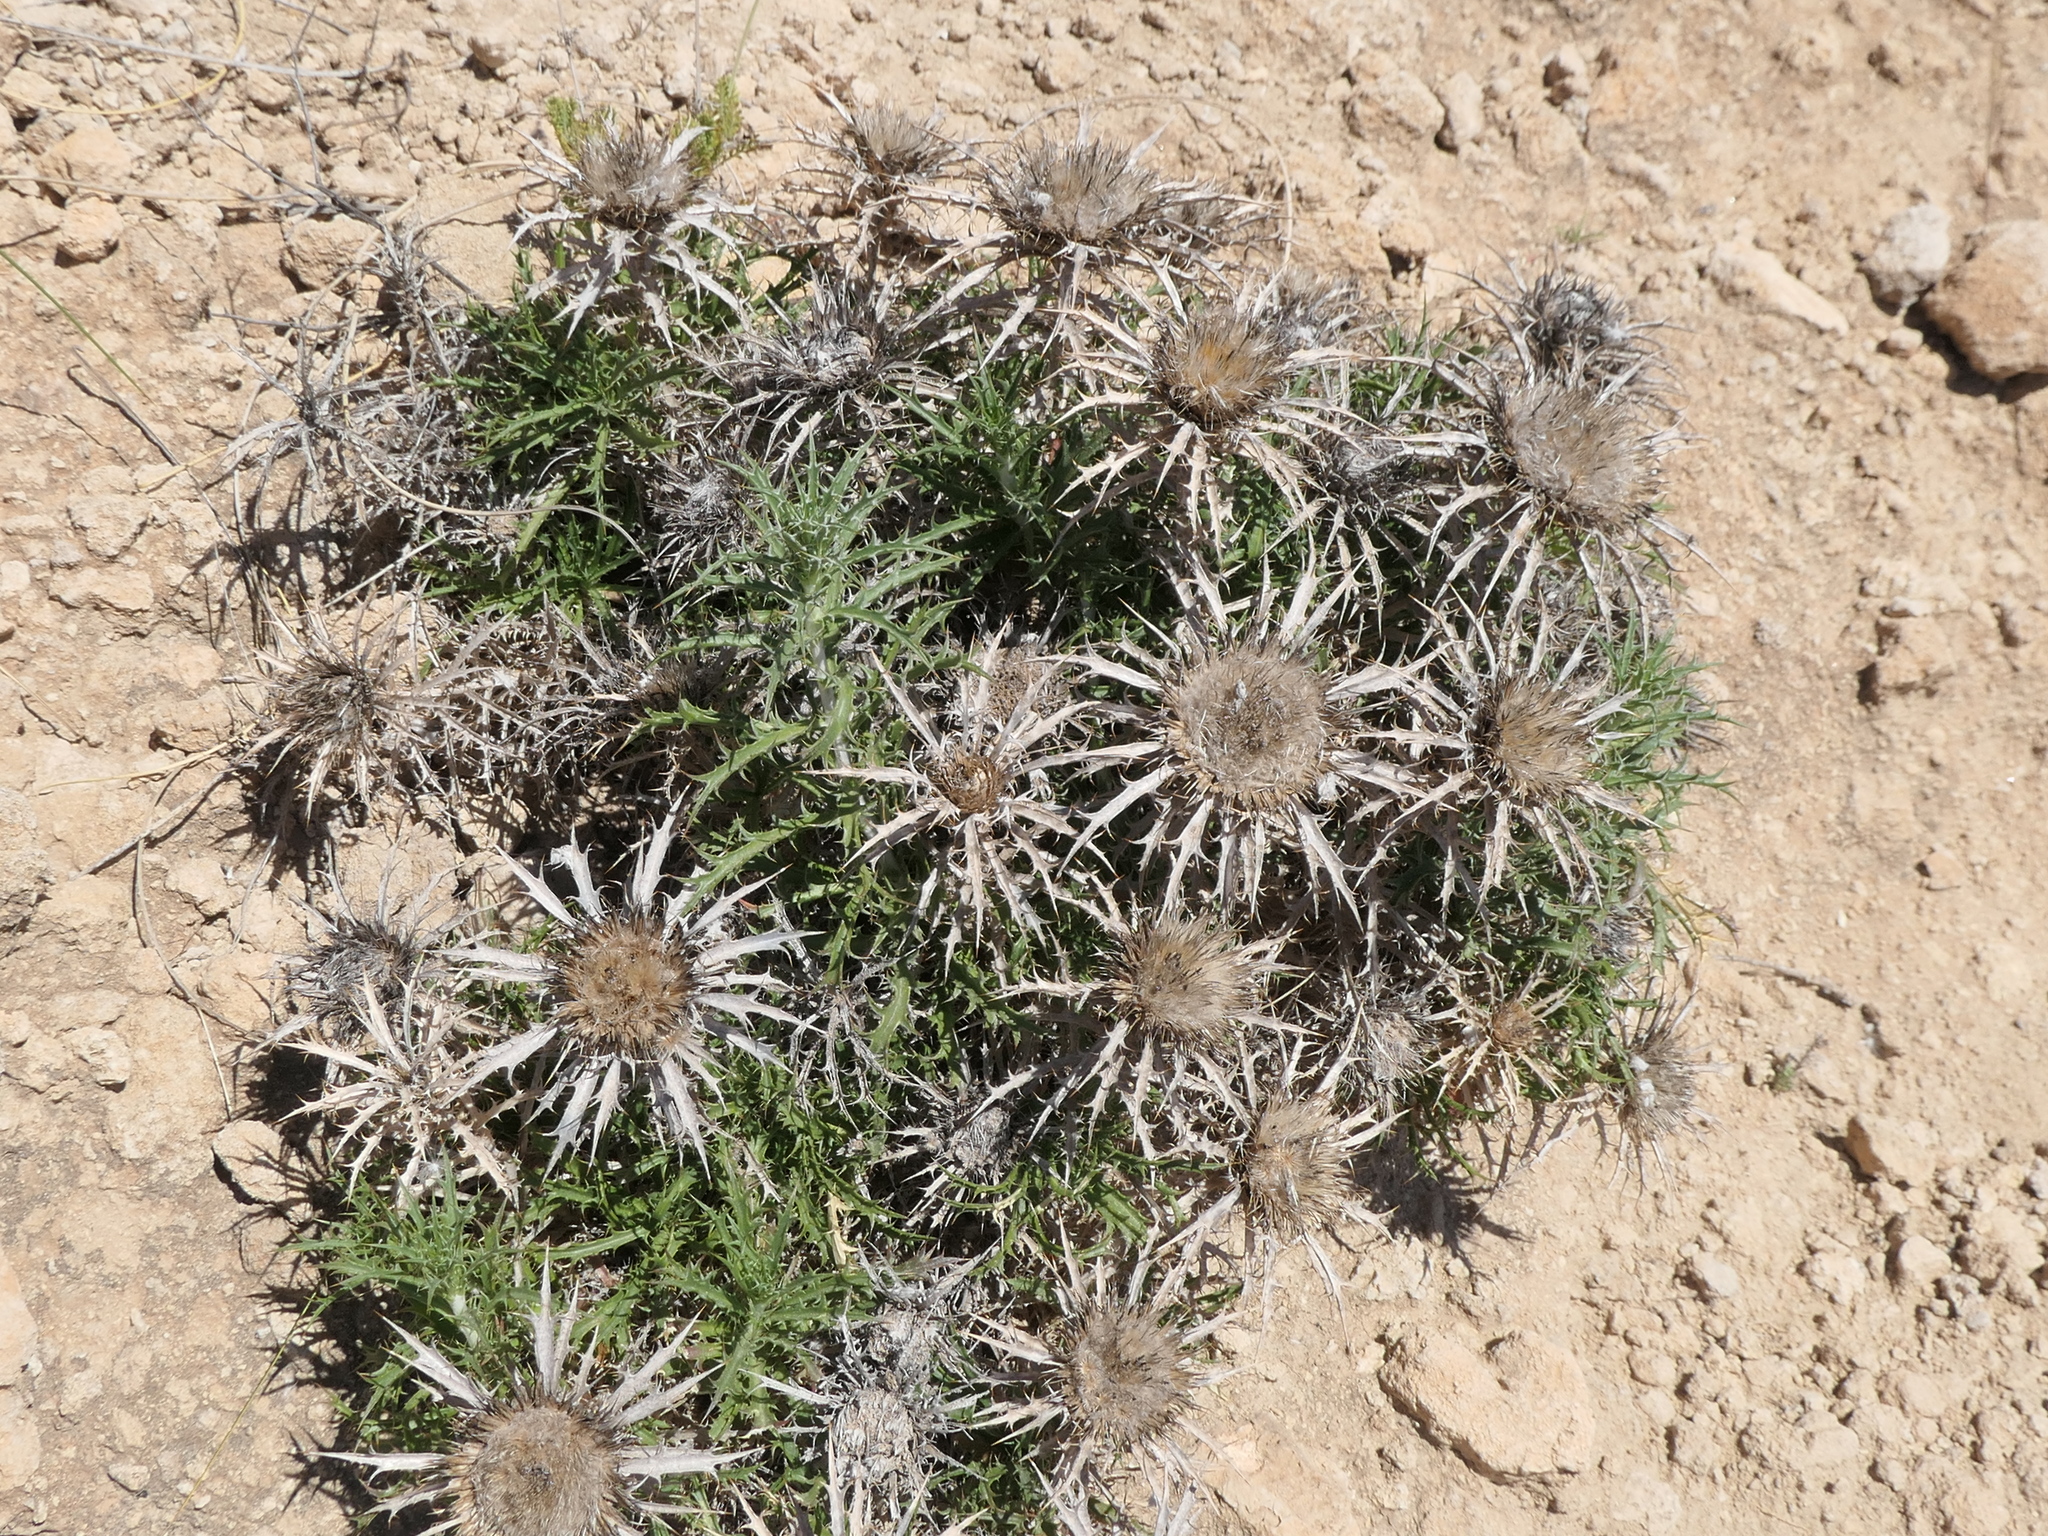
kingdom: Plantae
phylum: Tracheophyta
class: Magnoliopsida
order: Asterales
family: Asteraceae
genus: Carlina
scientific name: Carlina hispanica
